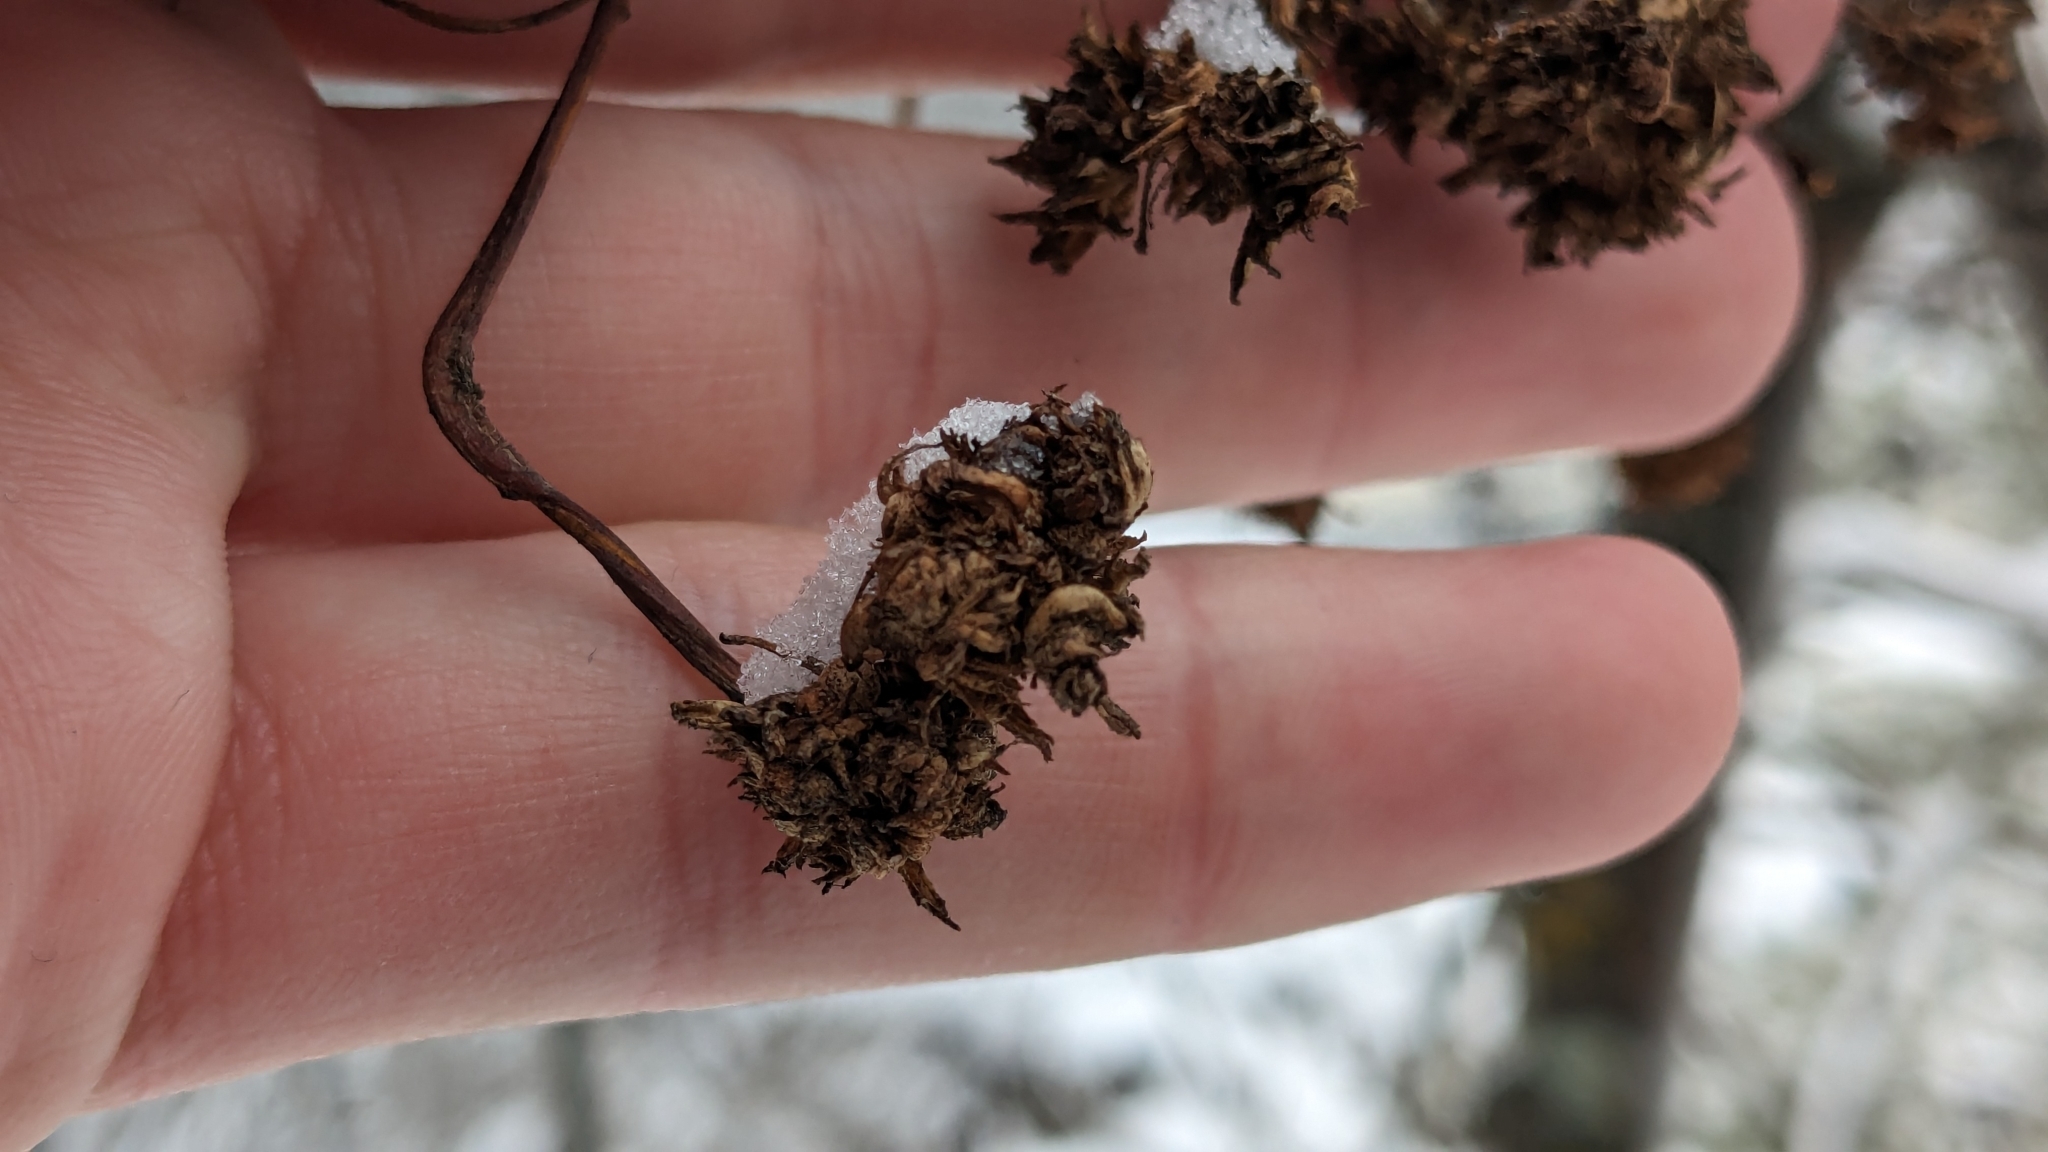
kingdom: Animalia
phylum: Arthropoda
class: Arachnida
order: Trombidiformes
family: Eriophyidae
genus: Aceria
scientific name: Aceria fraxiniflora
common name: Ash flower gall mite
